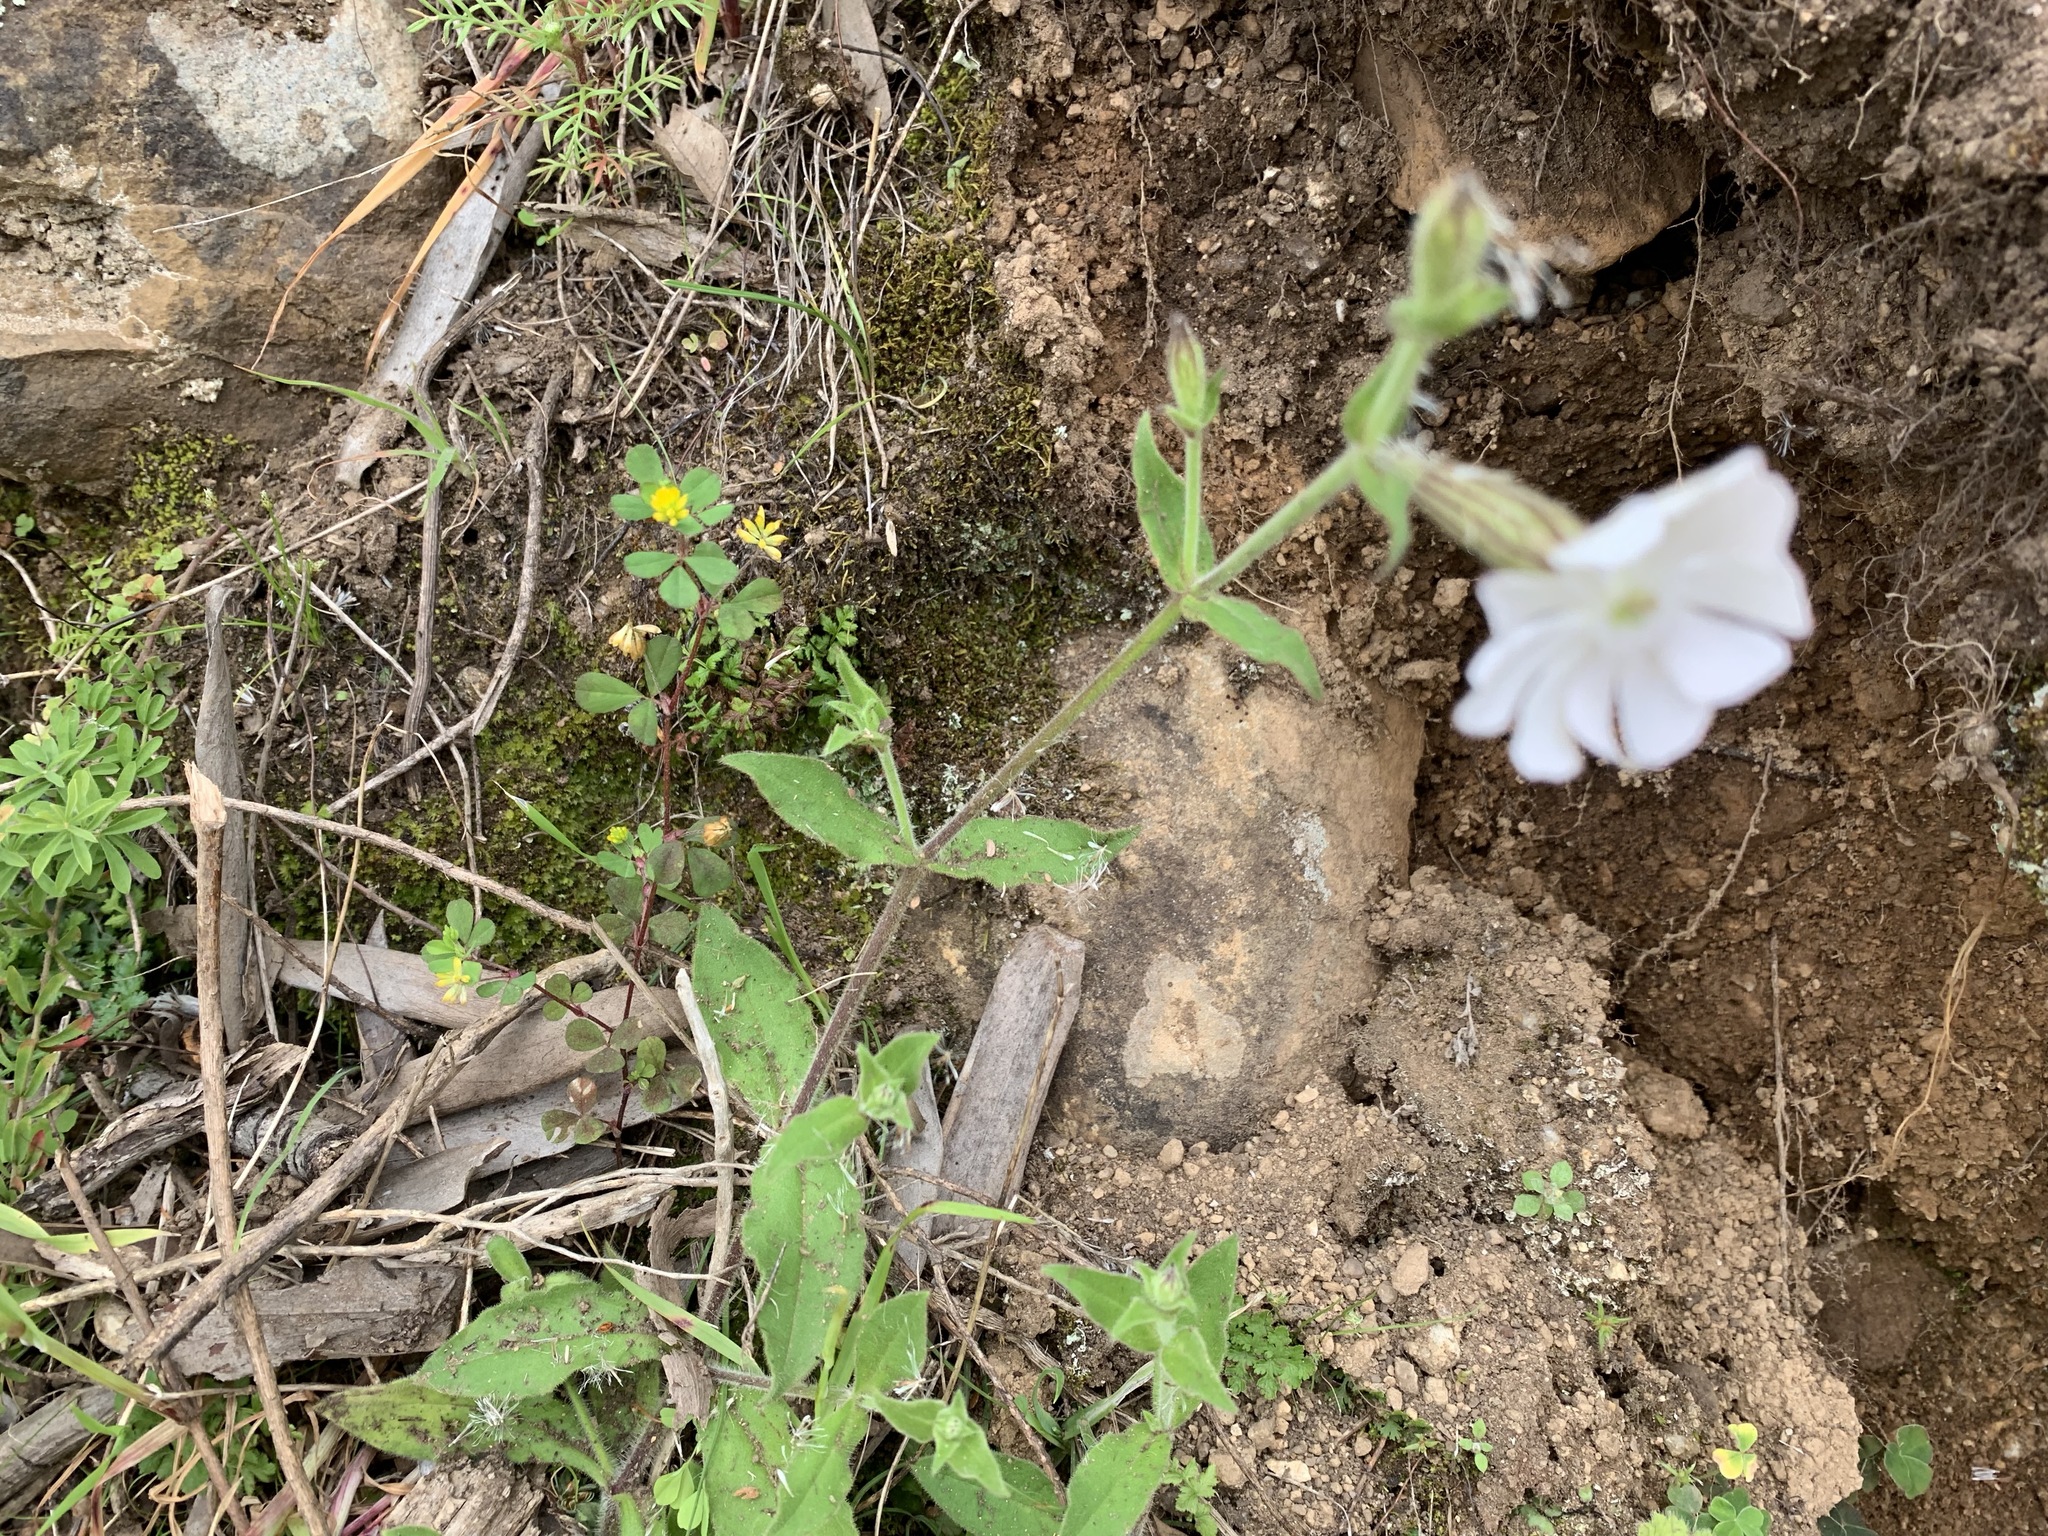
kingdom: Plantae
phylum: Tracheophyta
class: Magnoliopsida
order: Caryophyllales
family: Caryophyllaceae
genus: Silene
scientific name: Silene undulata
